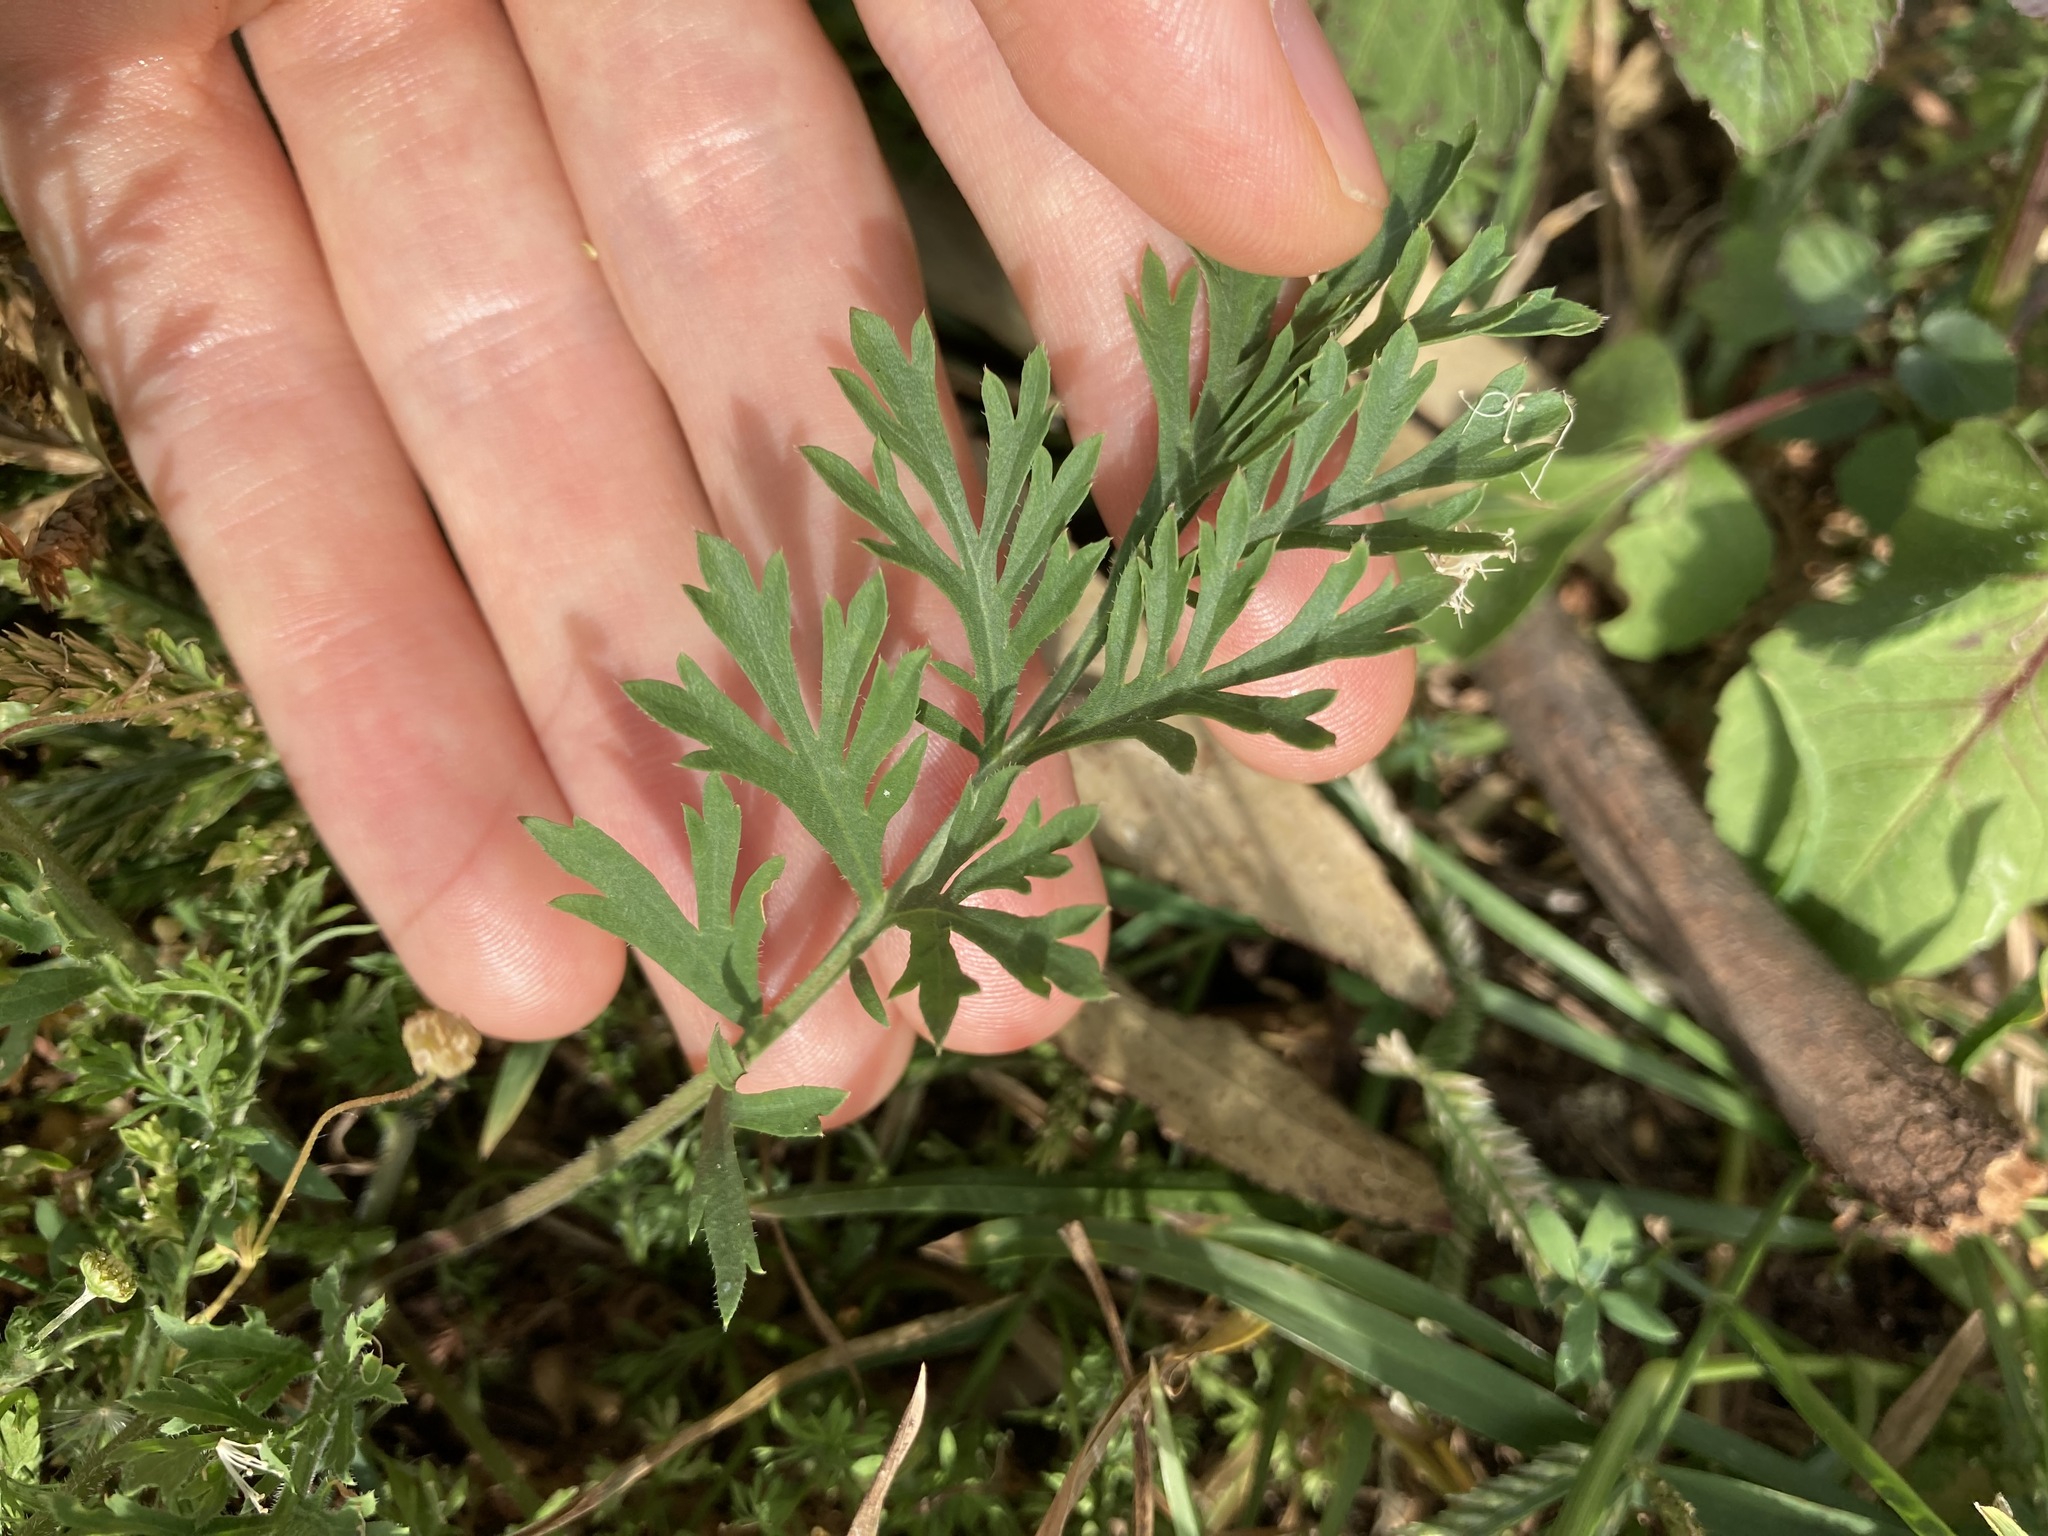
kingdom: Plantae
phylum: Tracheophyta
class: Magnoliopsida
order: Brassicales
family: Brassicaceae
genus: Lepidium
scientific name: Lepidium bonariense
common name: Argentine pepperwort
